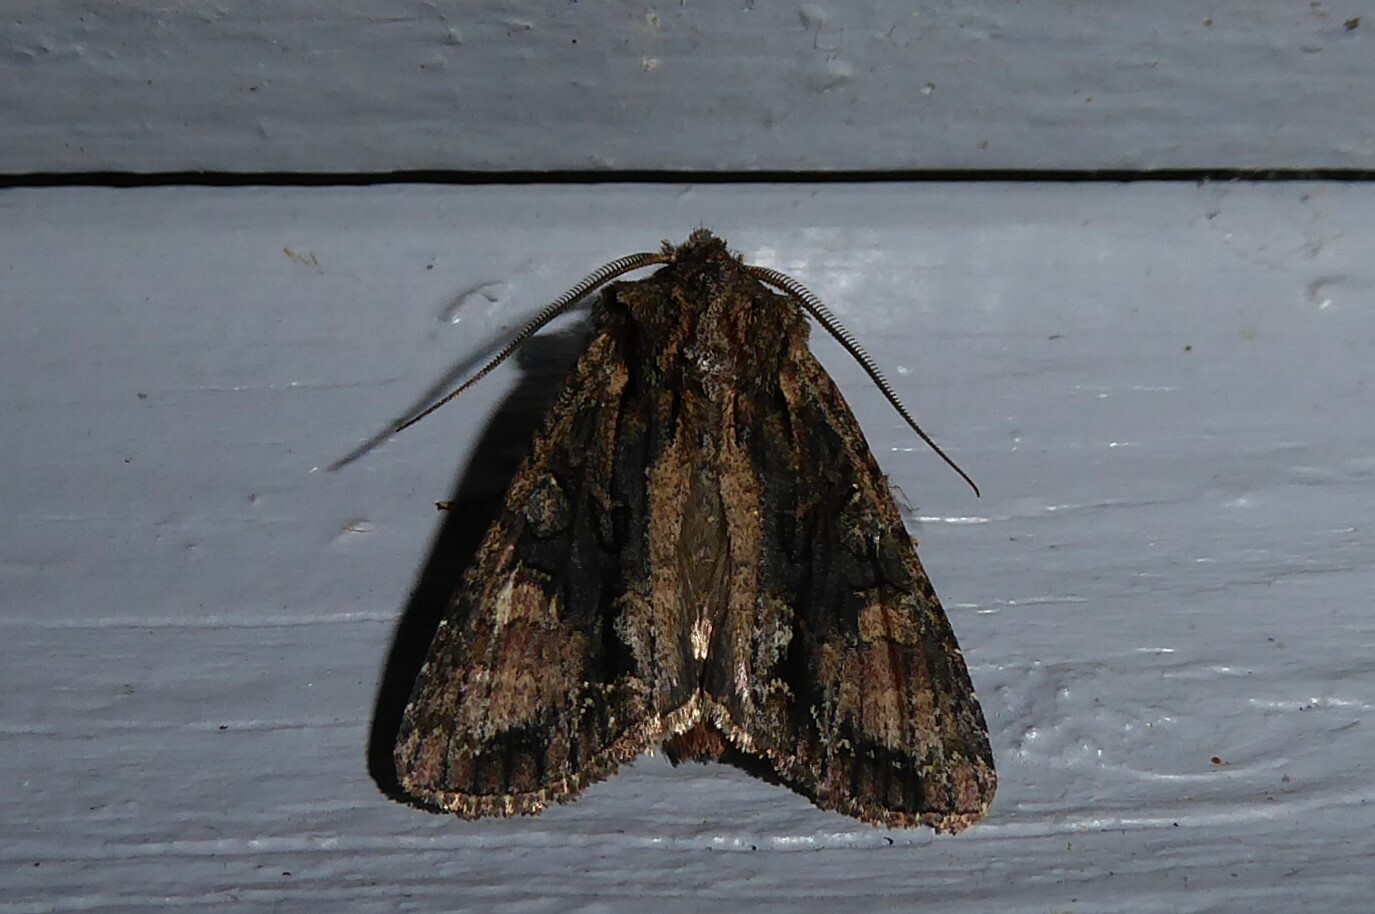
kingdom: Animalia
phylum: Arthropoda
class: Insecta
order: Lepidoptera
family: Noctuidae
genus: Ichneutica
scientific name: Ichneutica mutans
